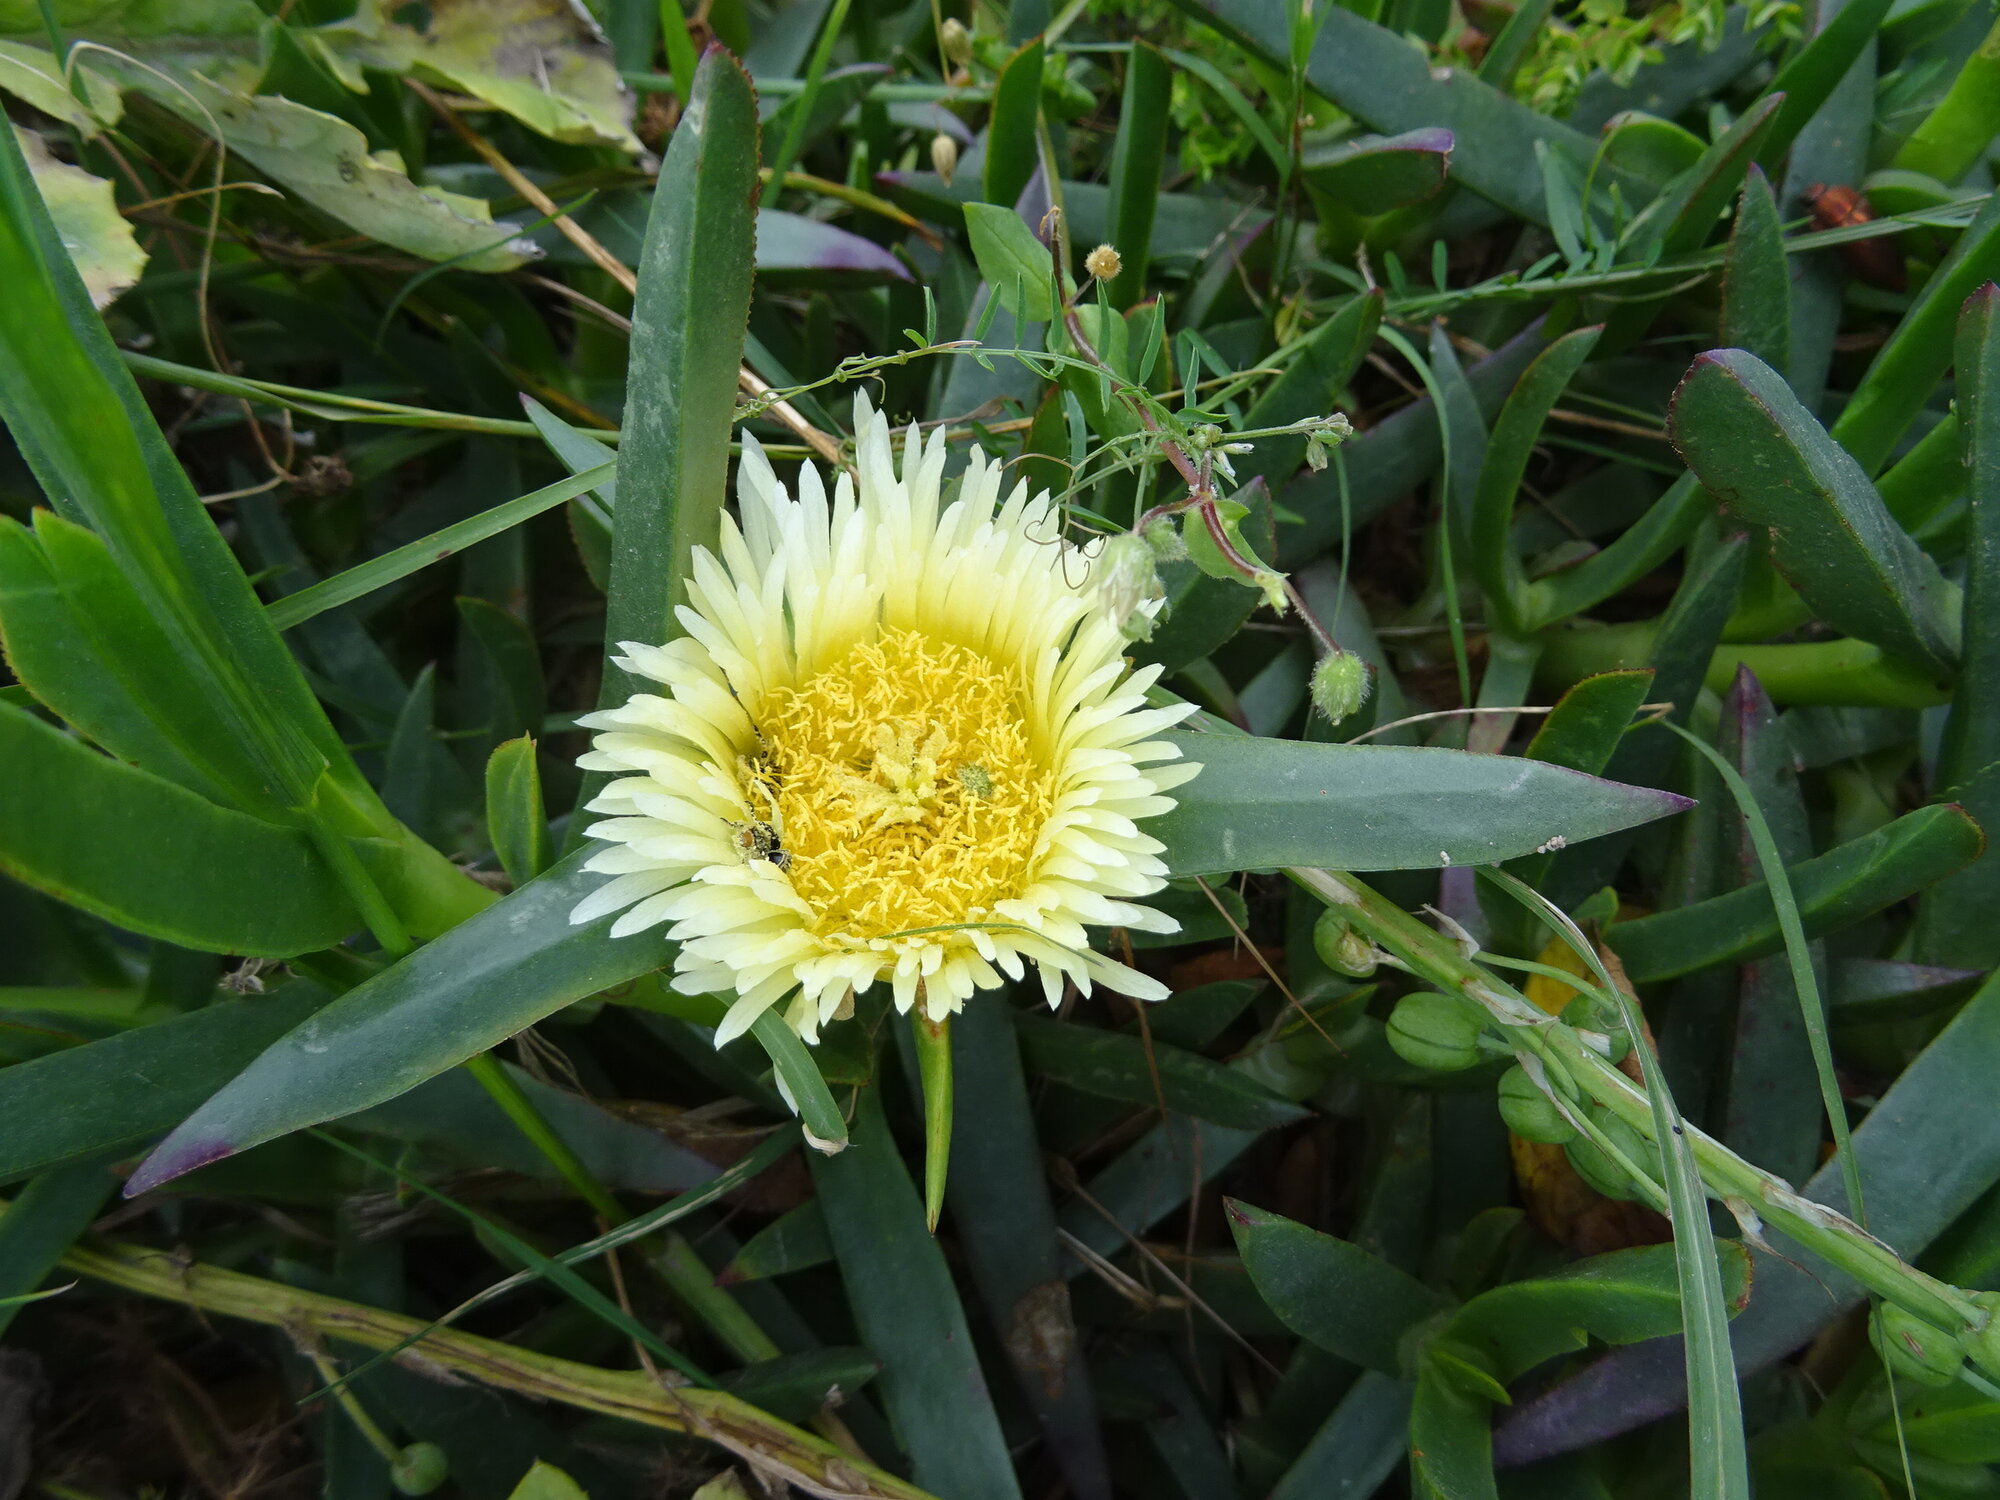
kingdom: Plantae
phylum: Tracheophyta
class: Magnoliopsida
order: Caryophyllales
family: Aizoaceae
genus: Carpobrotus
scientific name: Carpobrotus edulis
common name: Hottentot-fig
